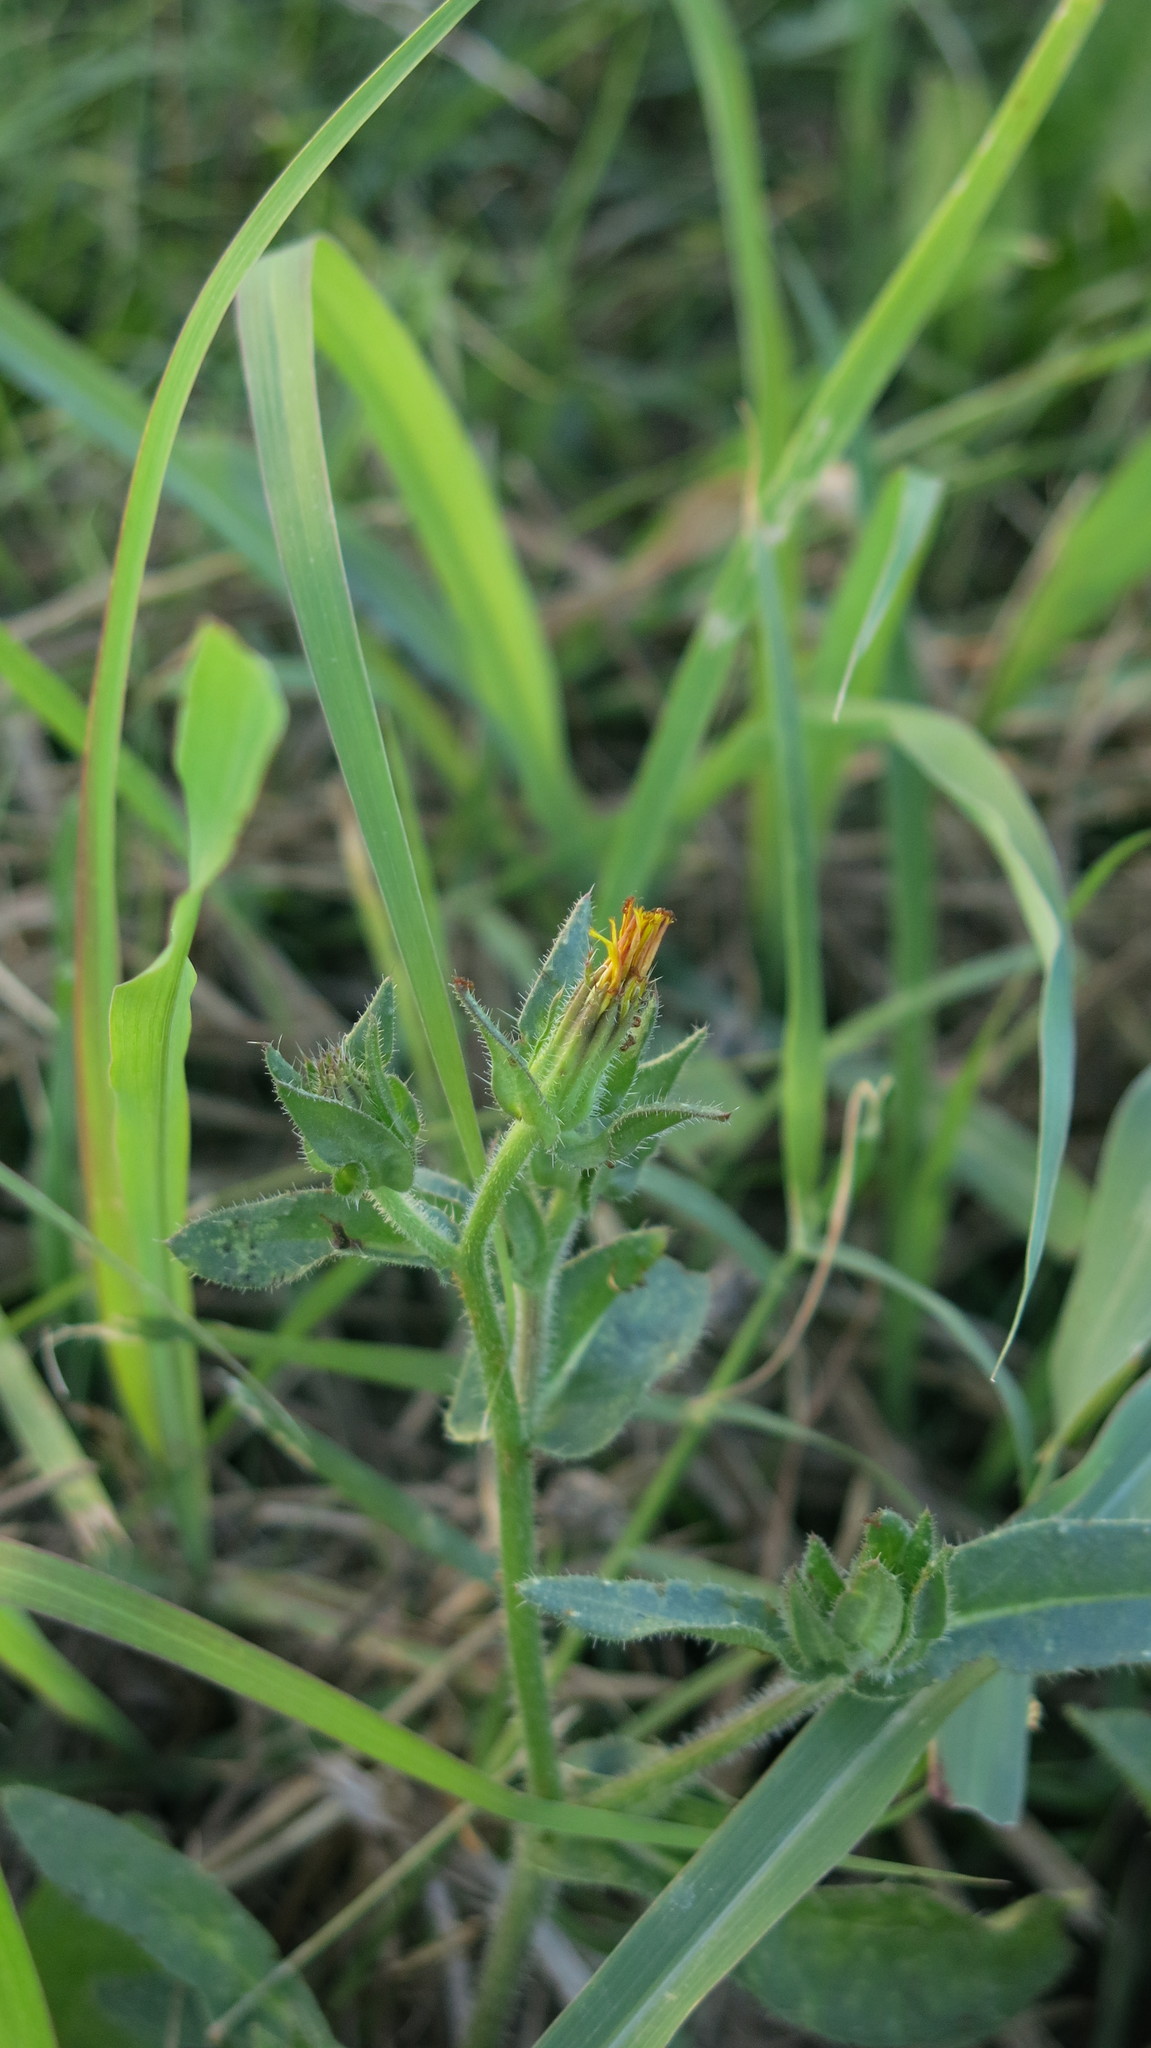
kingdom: Plantae
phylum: Tracheophyta
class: Magnoliopsida
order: Asterales
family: Asteraceae
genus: Helminthotheca
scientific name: Helminthotheca echioides
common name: Ox-tongue
